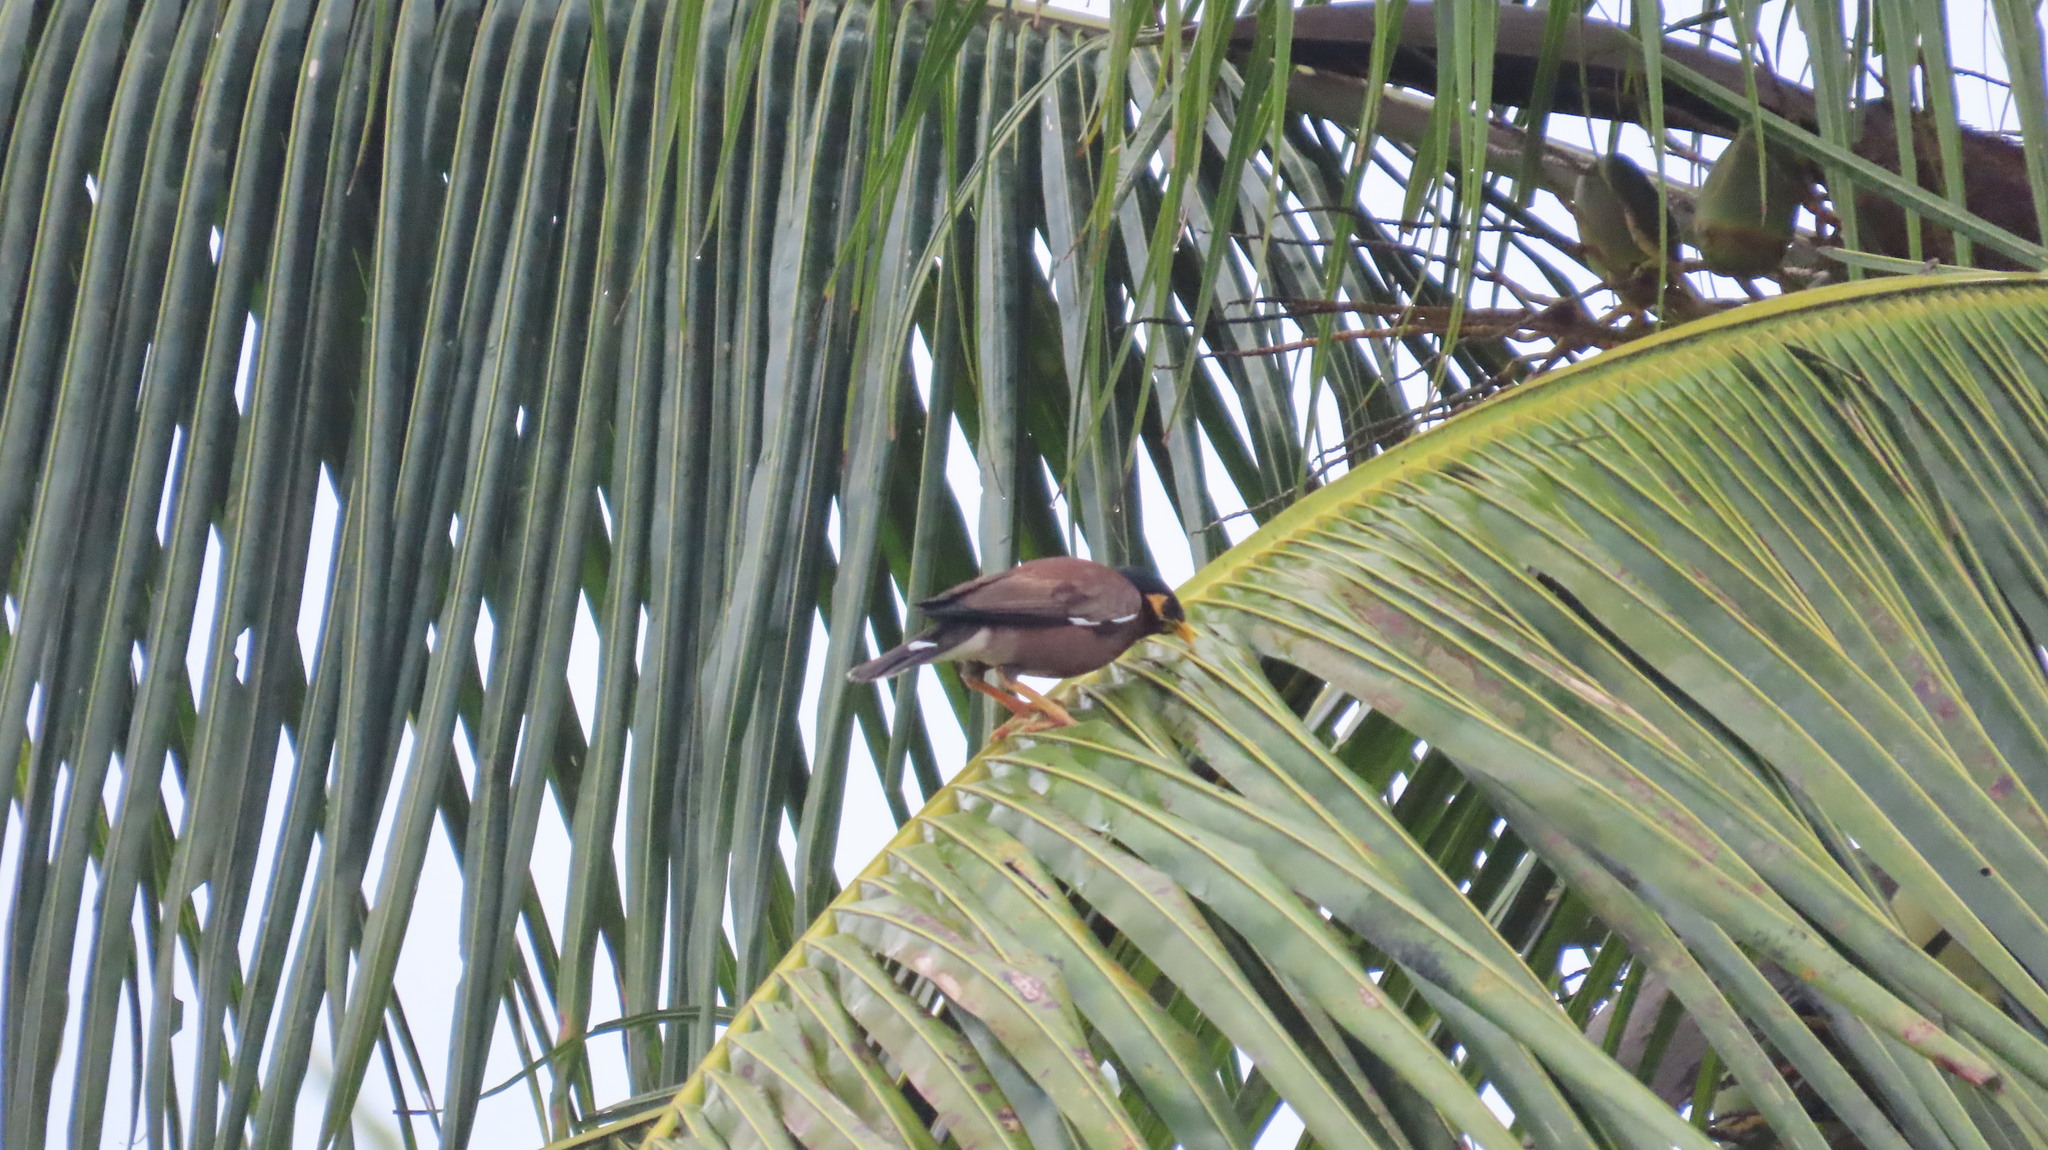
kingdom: Animalia
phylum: Chordata
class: Aves
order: Passeriformes
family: Sturnidae
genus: Acridotheres
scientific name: Acridotheres tristis
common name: Common myna
